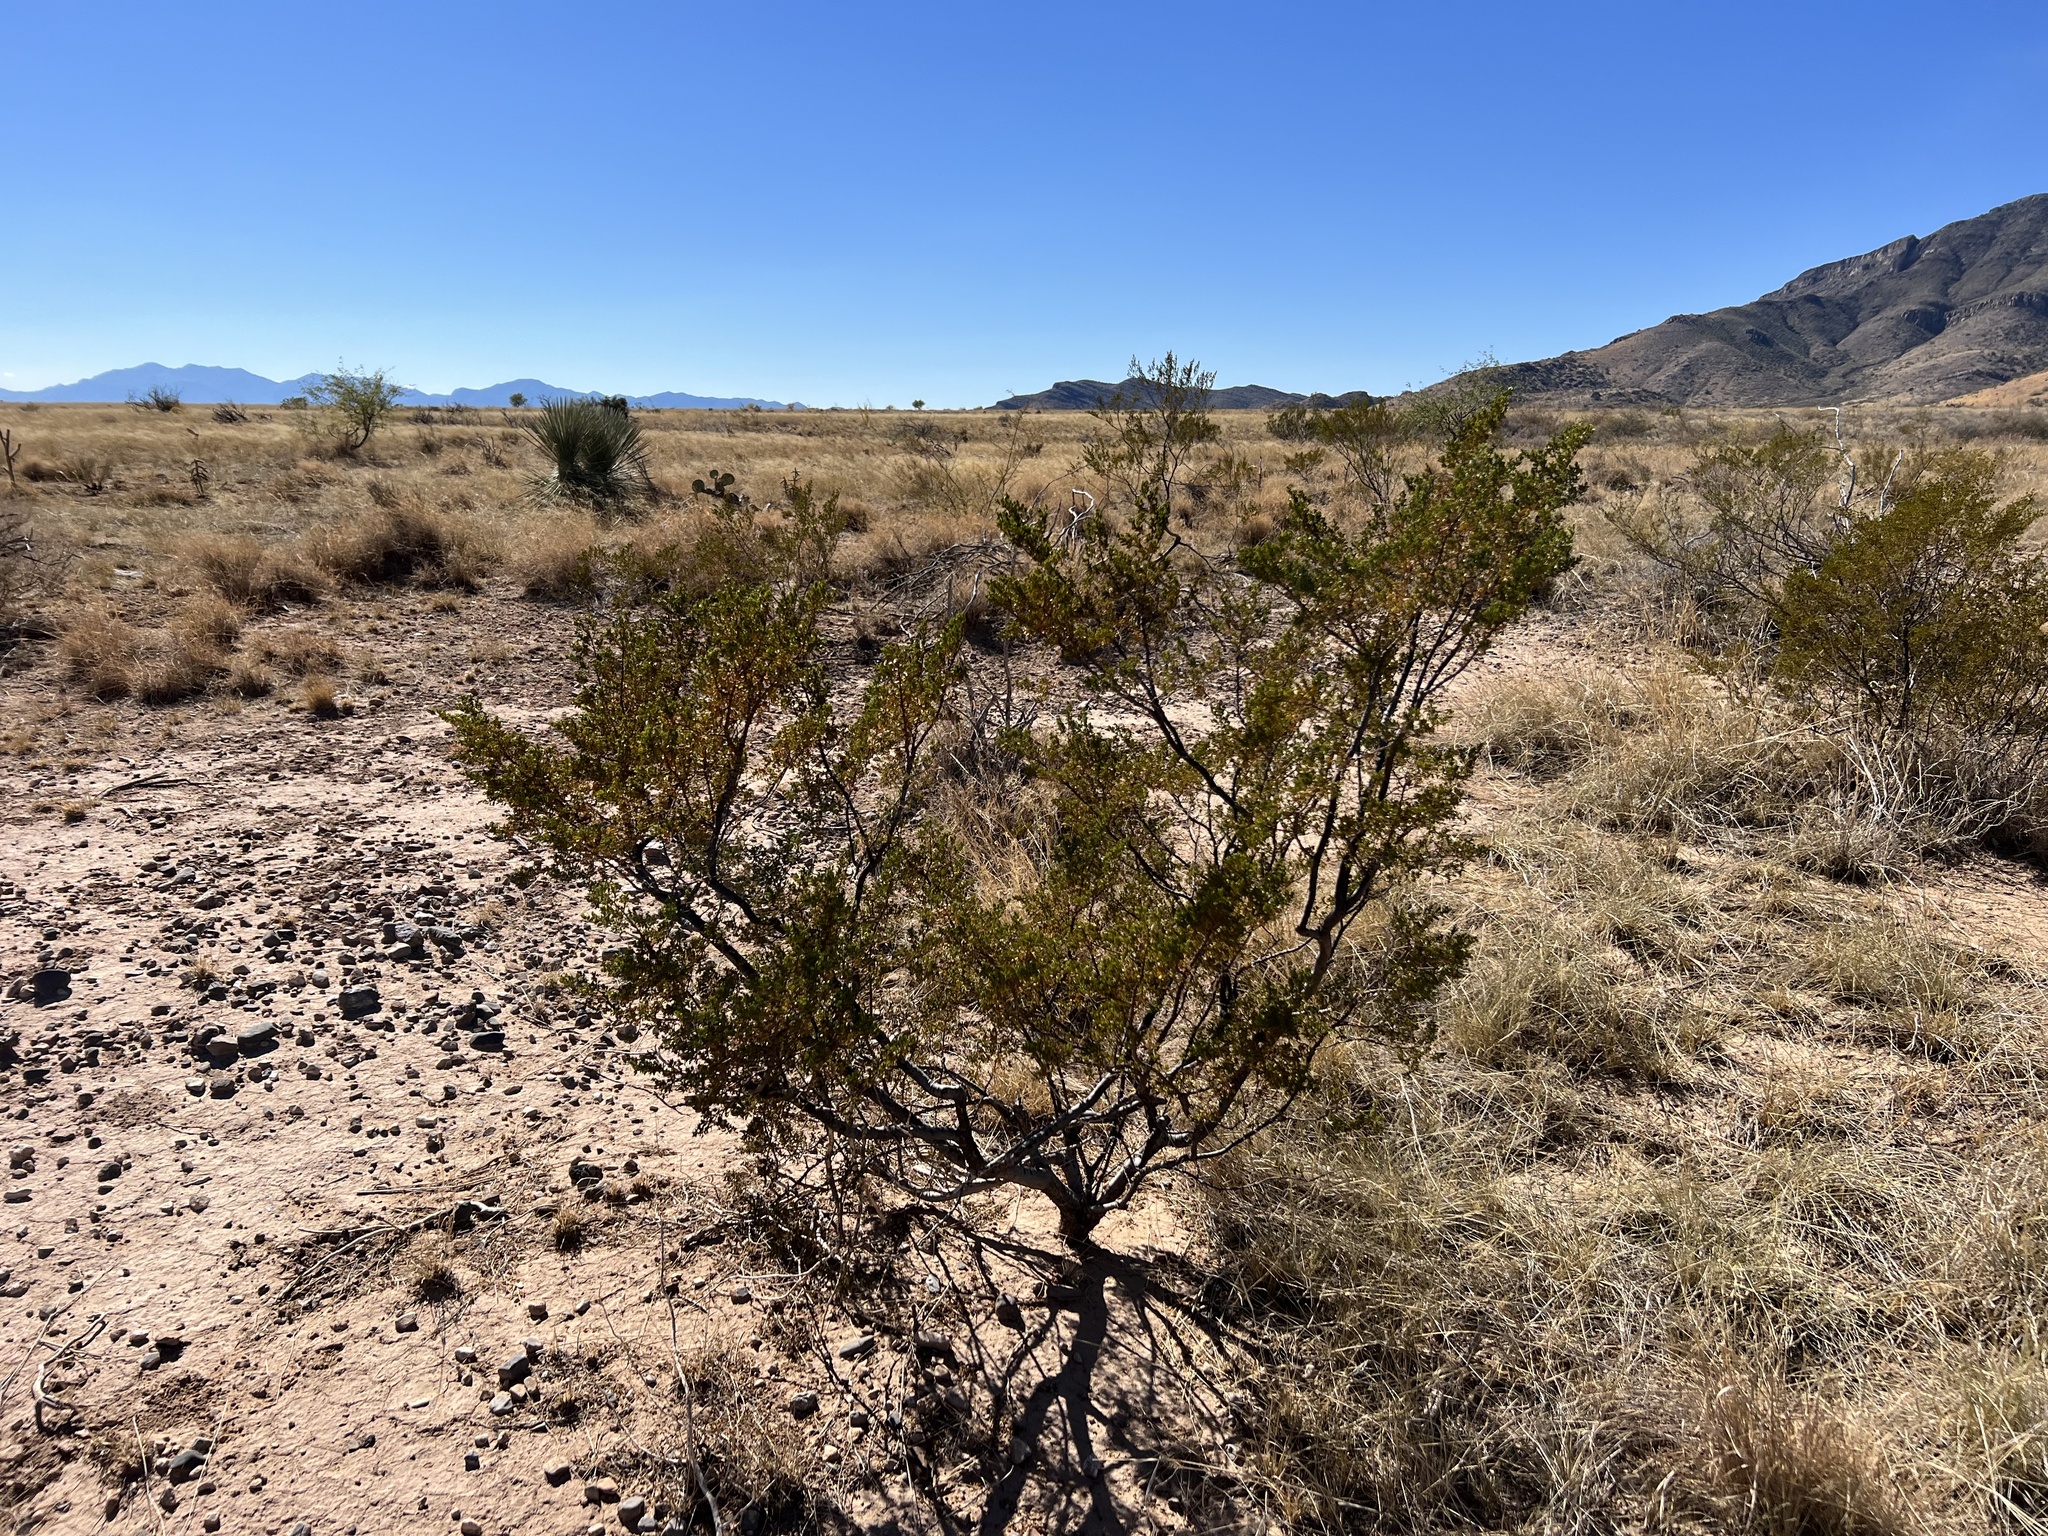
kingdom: Plantae
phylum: Tracheophyta
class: Magnoliopsida
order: Zygophyllales
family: Zygophyllaceae
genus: Larrea
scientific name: Larrea tridentata
